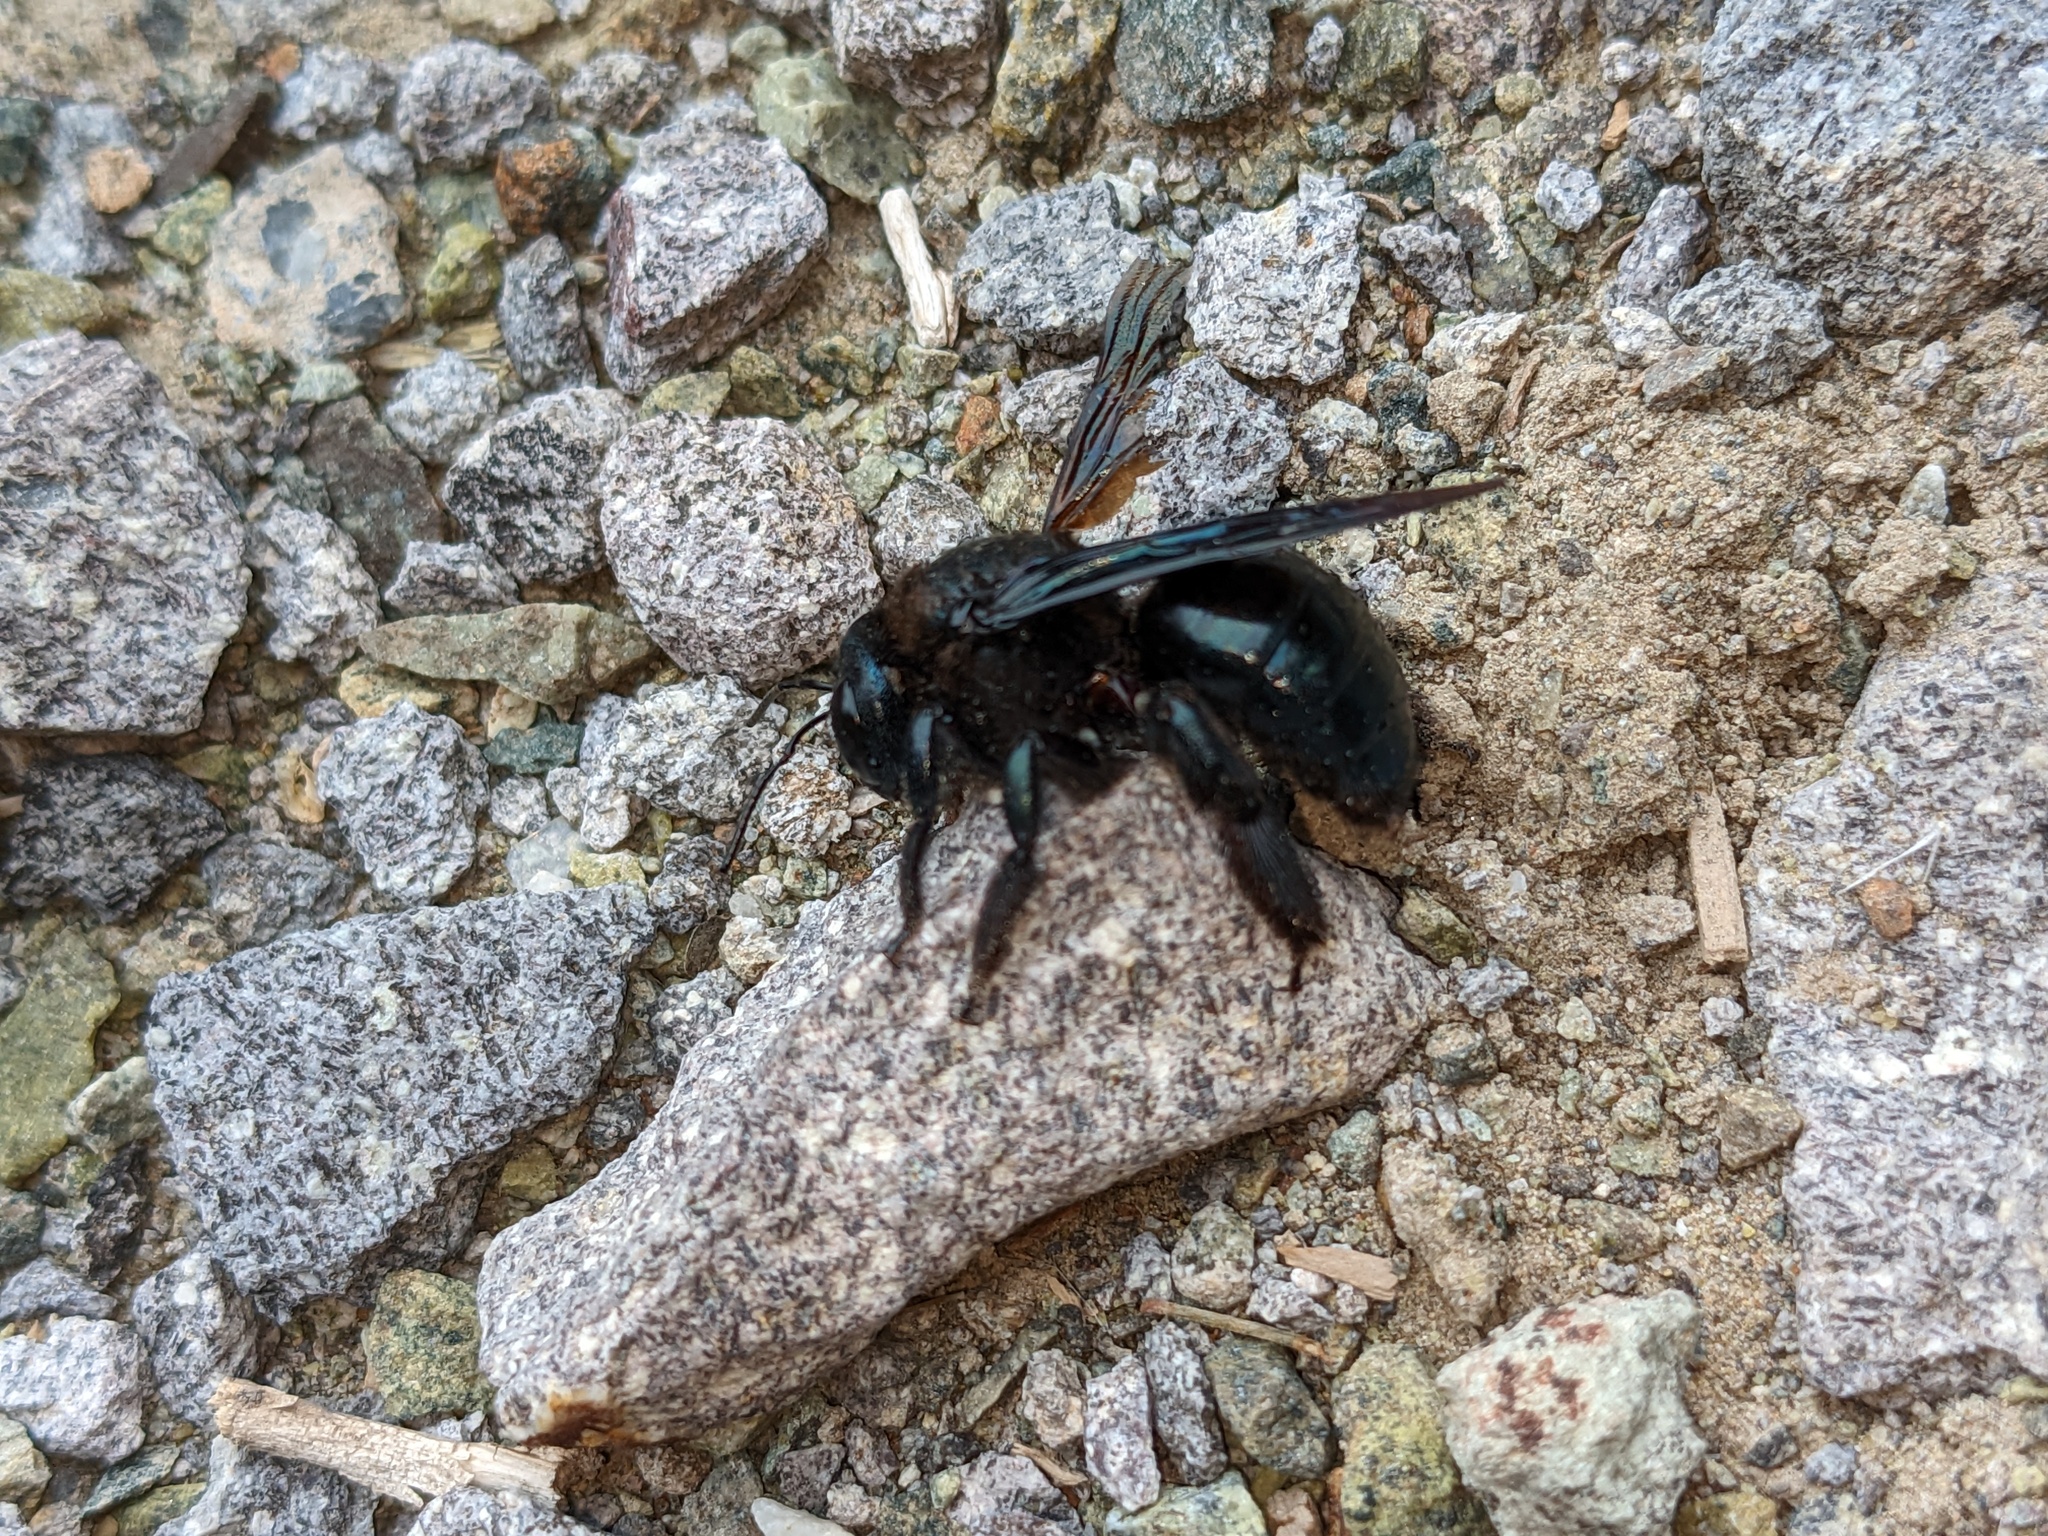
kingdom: Animalia
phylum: Arthropoda
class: Insecta
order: Hymenoptera
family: Apidae
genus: Xylocopa
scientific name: Xylocopa californica
